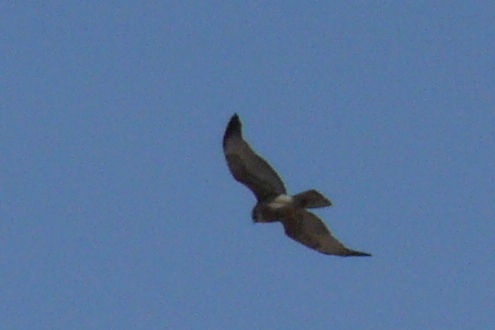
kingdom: Animalia
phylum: Chordata
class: Aves
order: Accipitriformes
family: Accipitridae
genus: Buteo
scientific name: Buteo polyosoma
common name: Variable hawk
